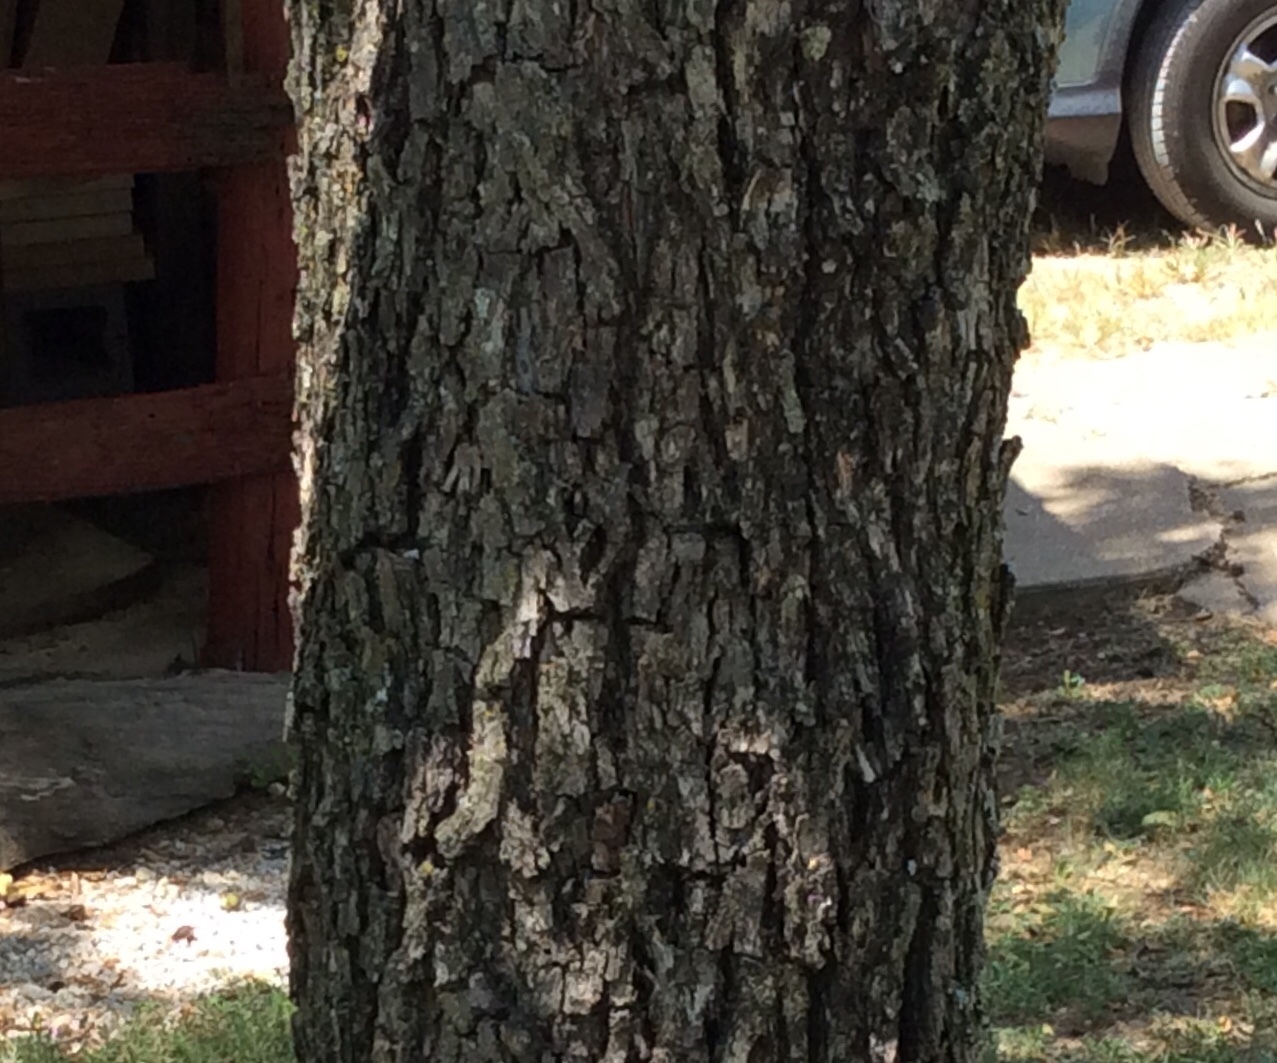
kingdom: Plantae
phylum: Tracheophyta
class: Magnoliopsida
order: Fagales
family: Juglandaceae
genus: Carya
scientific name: Carya illinoinensis
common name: Pecan
